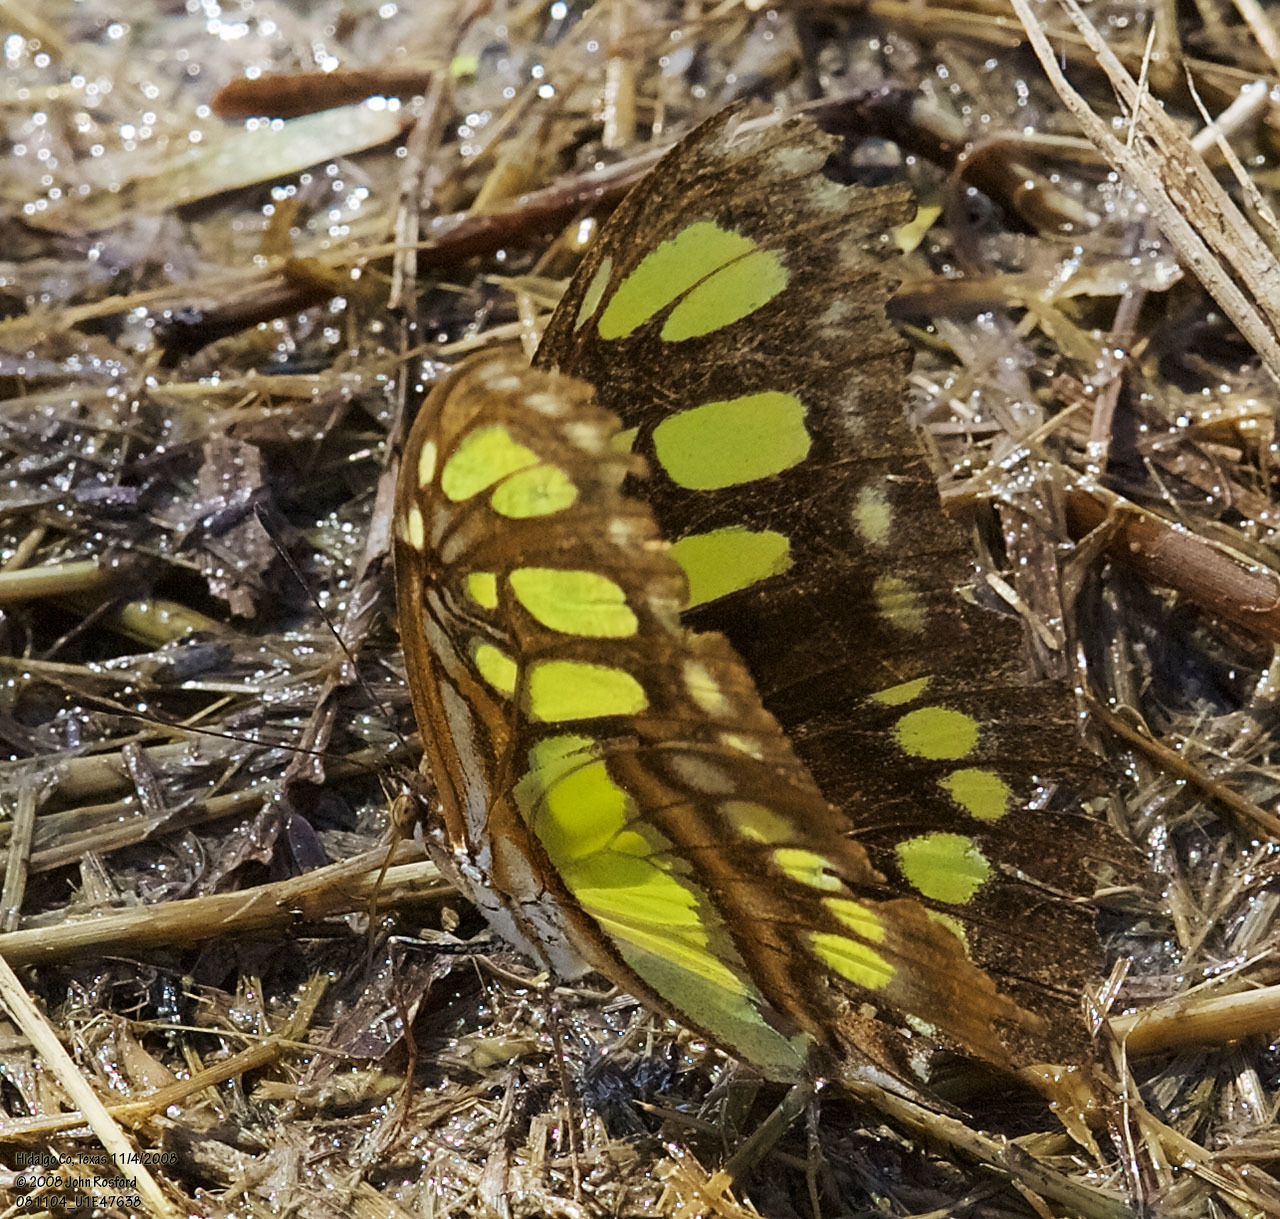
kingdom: Animalia
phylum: Arthropoda
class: Insecta
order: Lepidoptera
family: Nymphalidae
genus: Siproeta
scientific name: Siproeta stelenes
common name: Malachite
